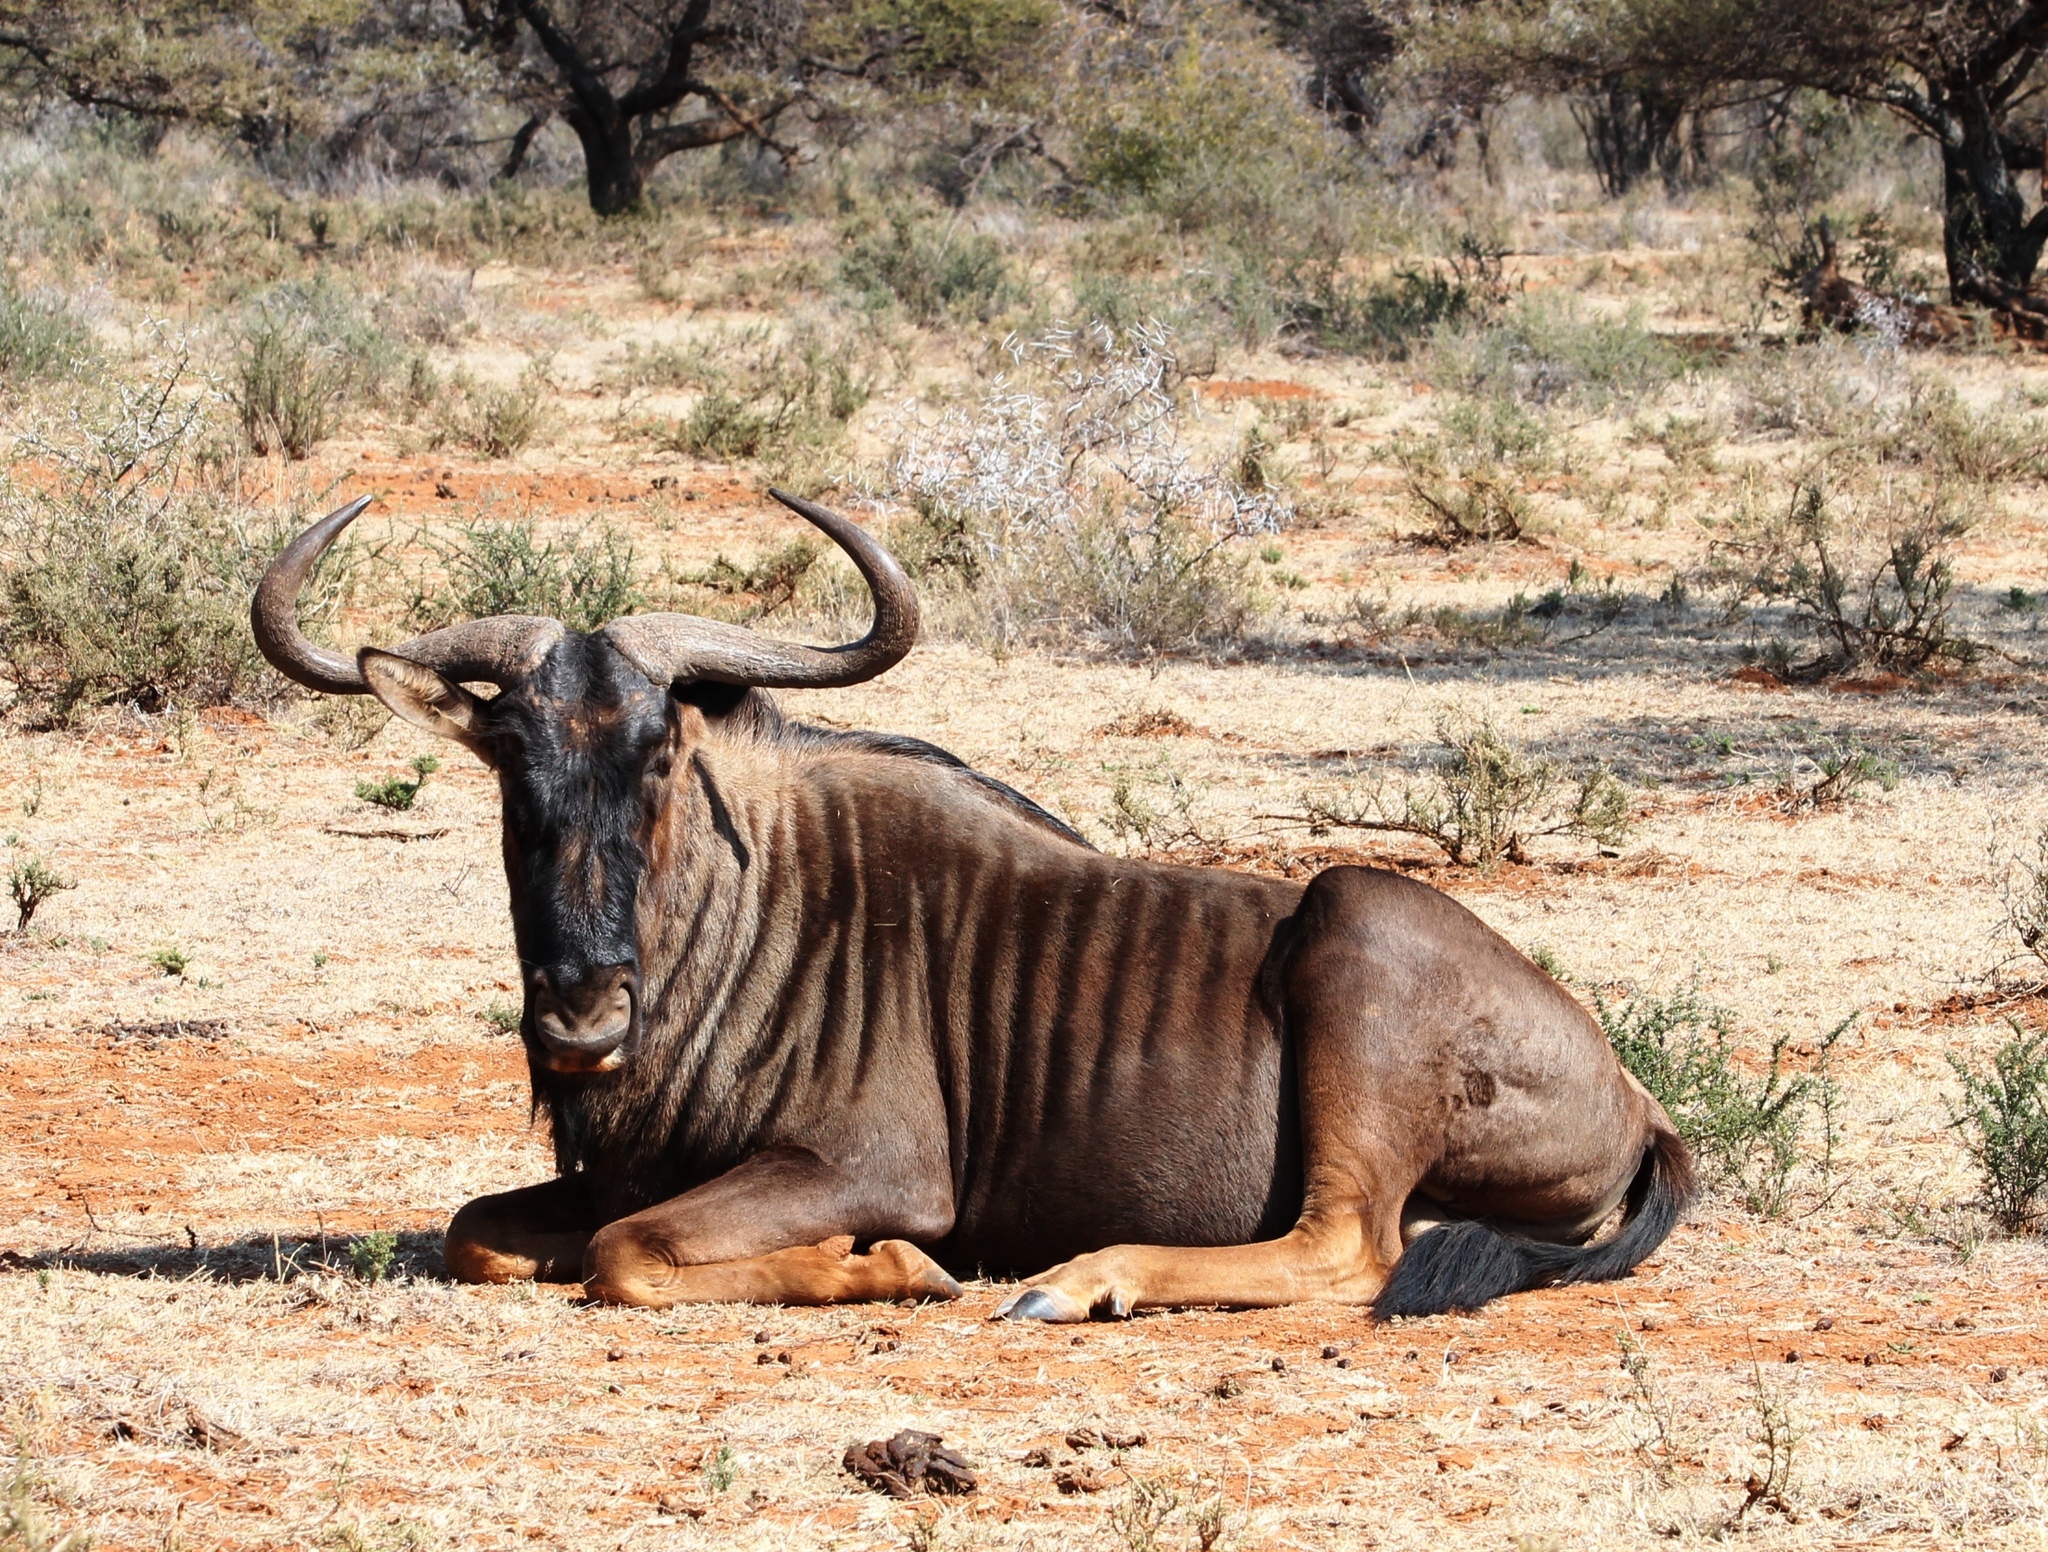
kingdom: Animalia
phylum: Chordata
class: Mammalia
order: Artiodactyla
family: Bovidae
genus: Connochaetes
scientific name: Connochaetes taurinus
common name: Blue wildebeest
